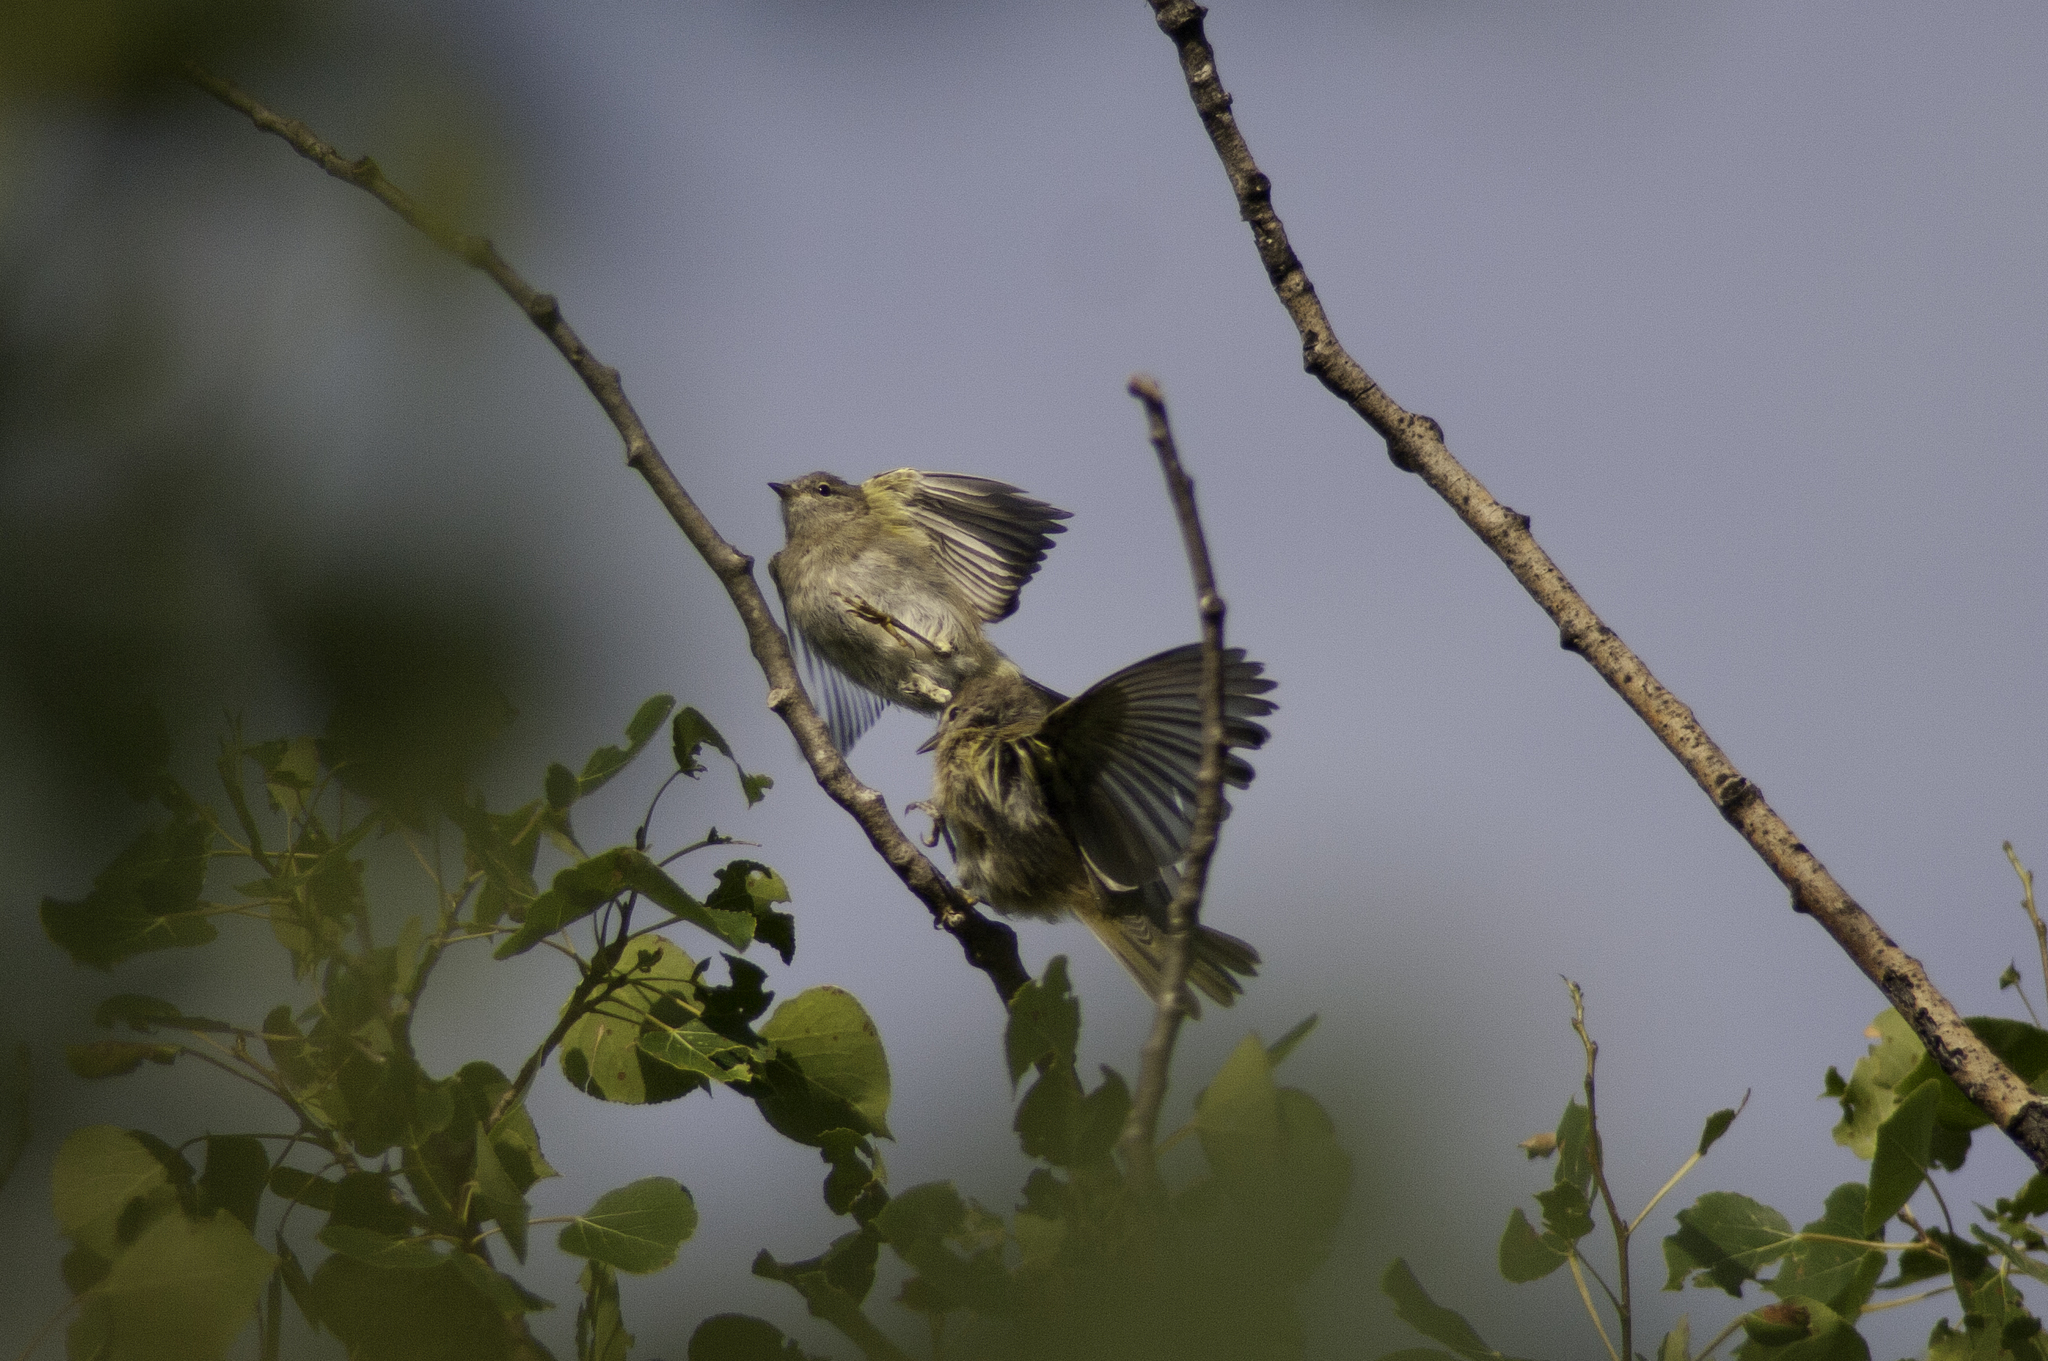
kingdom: Animalia
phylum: Chordata
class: Aves
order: Passeriformes
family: Parulidae
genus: Leiothlypis
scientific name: Leiothlypis celata
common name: Orange-crowned warbler
